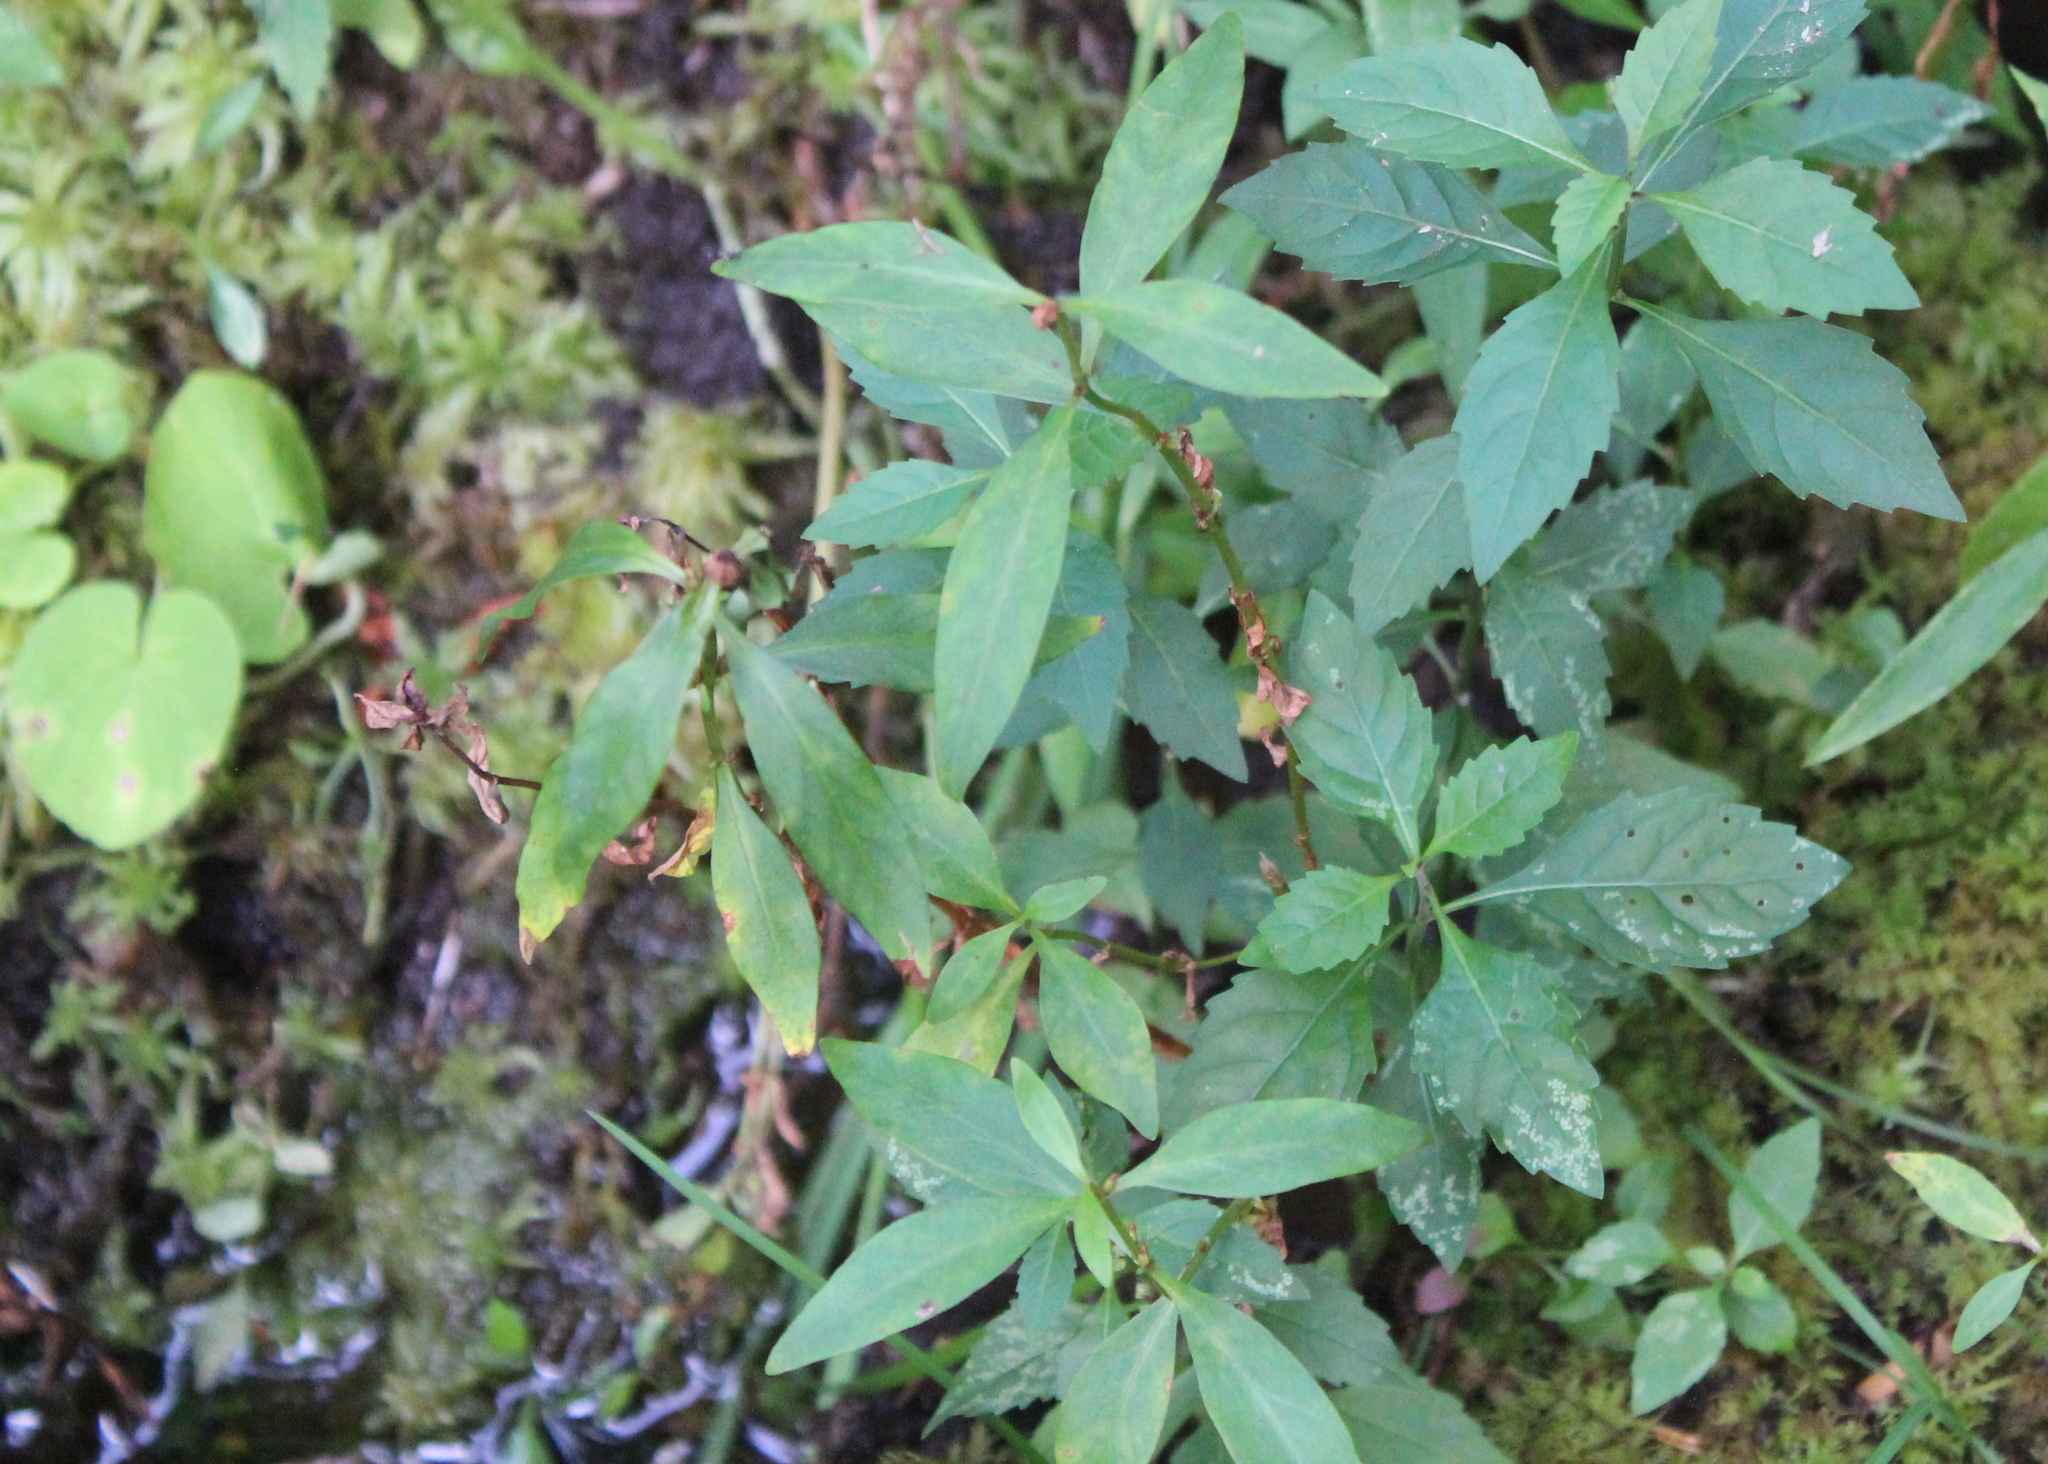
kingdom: Plantae
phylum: Tracheophyta
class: Magnoliopsida
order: Ericales
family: Primulaceae
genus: Lysimachia
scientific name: Lysimachia terrestris
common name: Lake loosestrife
